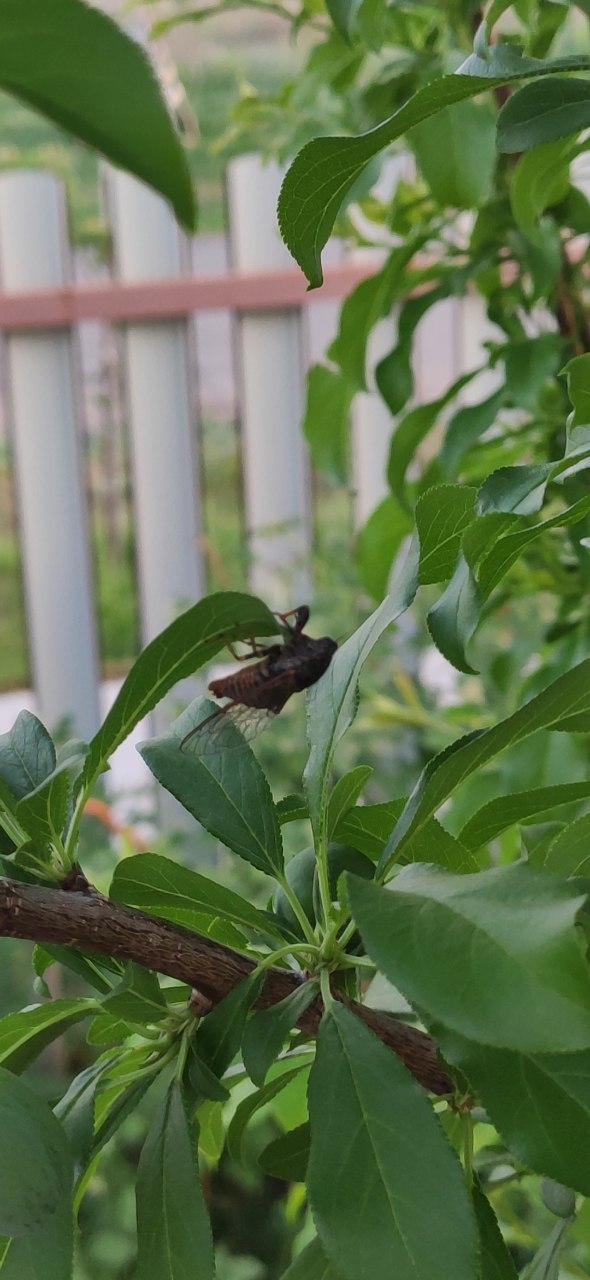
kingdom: Animalia
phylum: Arthropoda
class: Insecta
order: Hemiptera
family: Cicadidae
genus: Cicadetta
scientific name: Cicadetta montana
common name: New forest cicada
